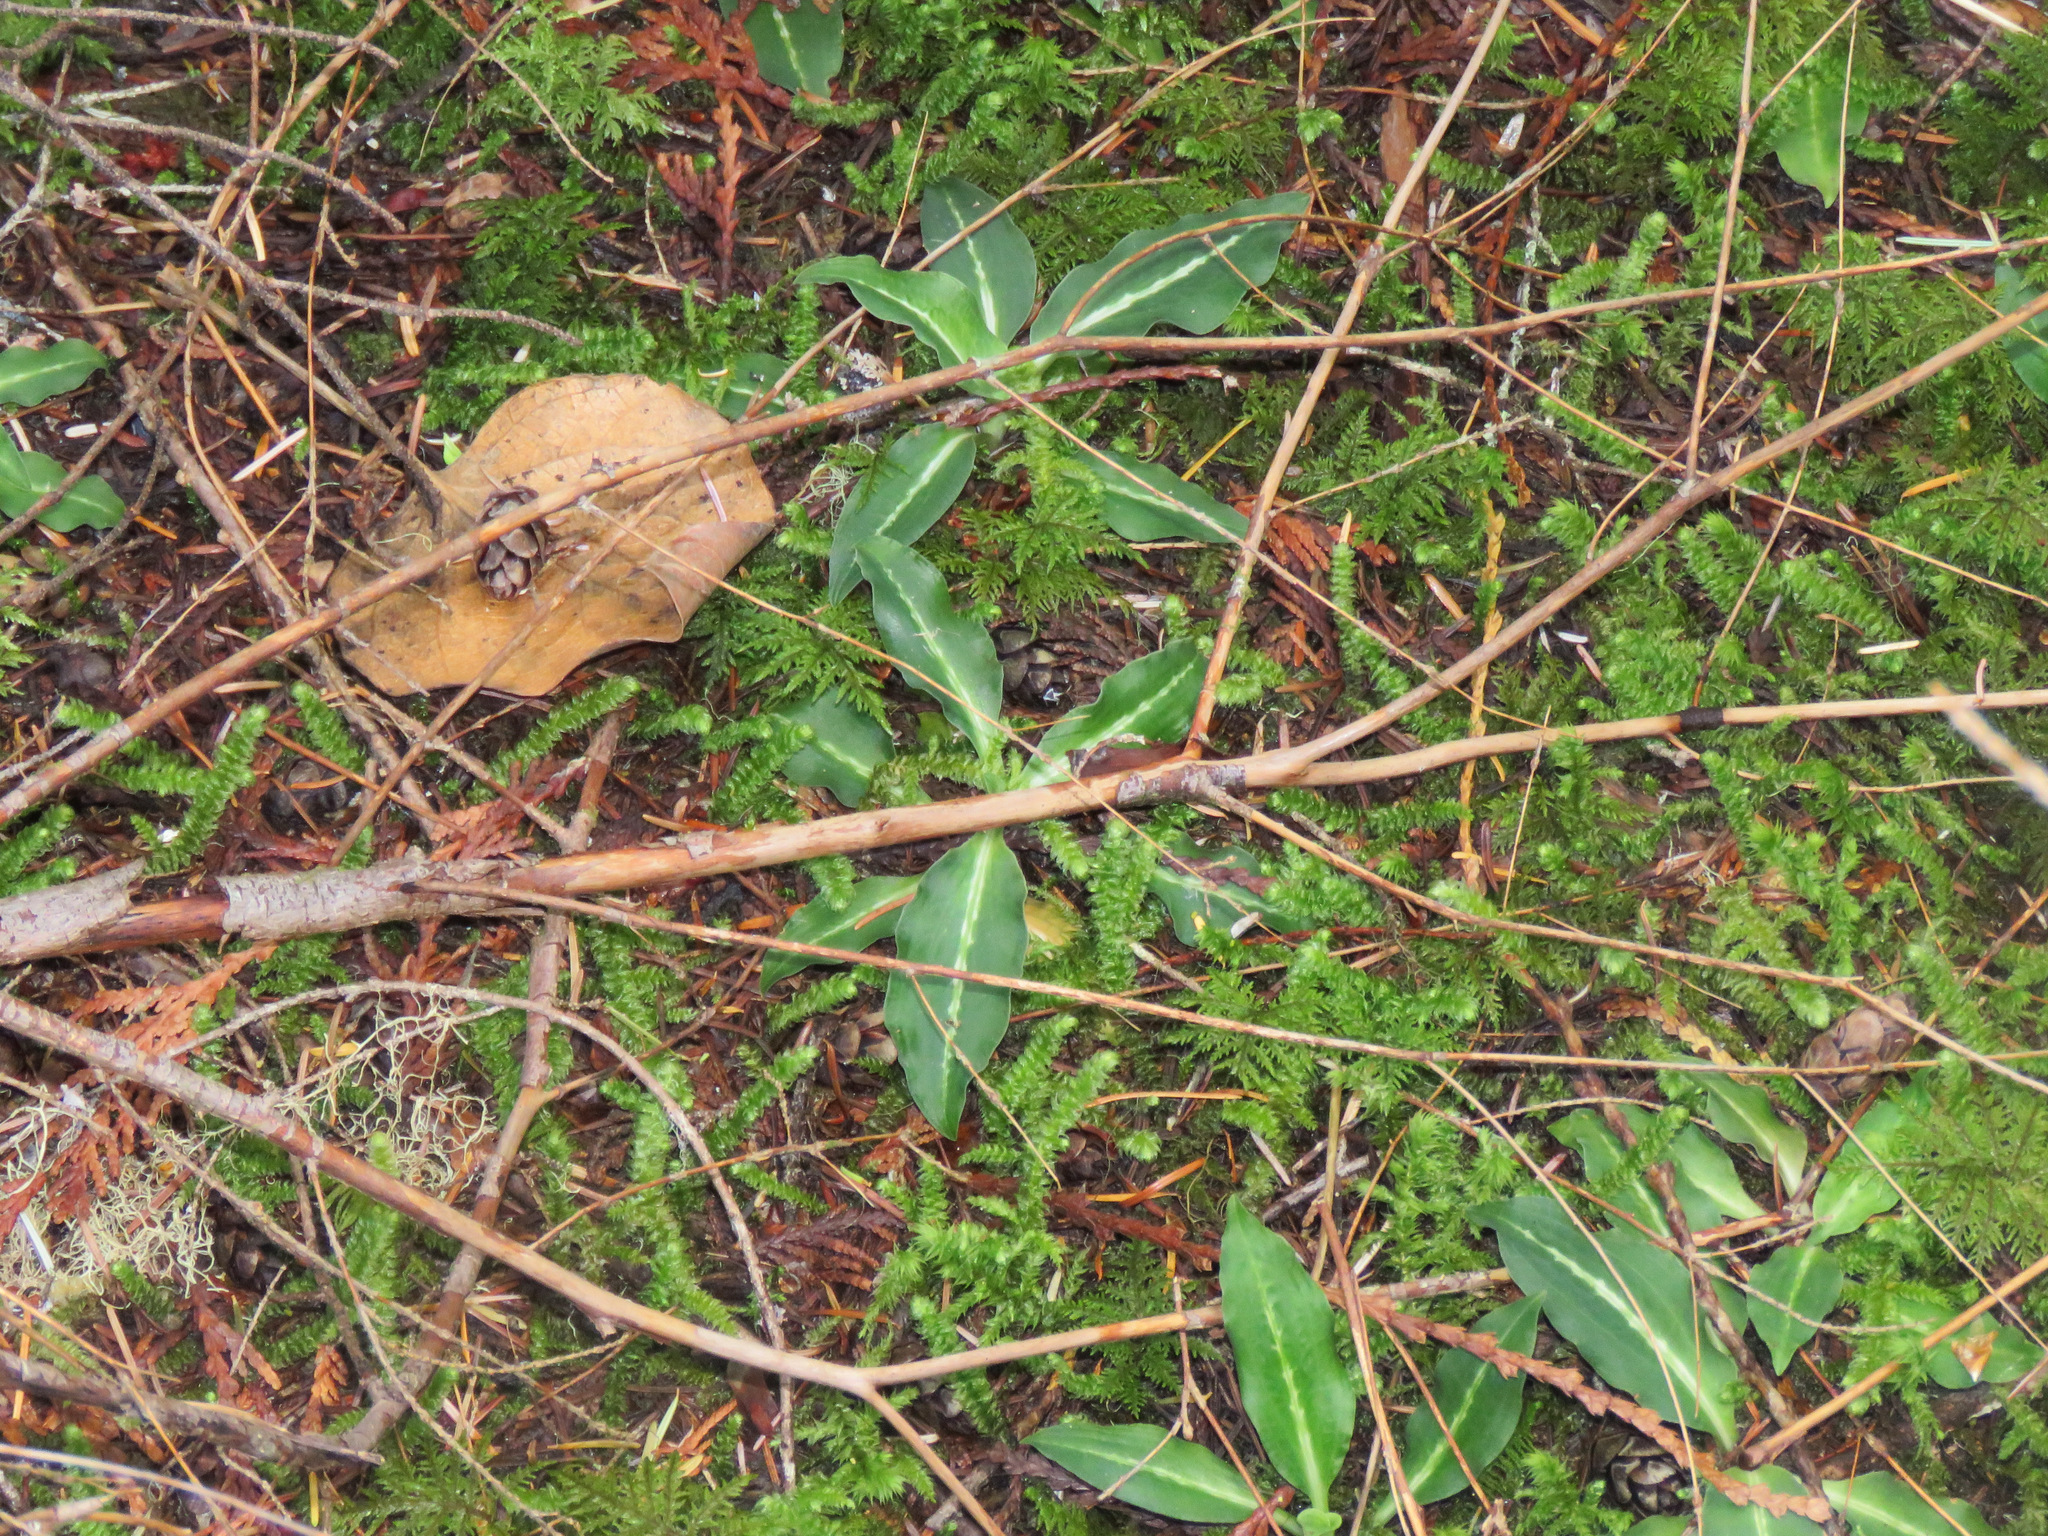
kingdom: Plantae
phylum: Tracheophyta
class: Liliopsida
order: Asparagales
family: Orchidaceae
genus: Goodyera
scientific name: Goodyera oblongifolia
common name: Giant rattlesnake-plantain
